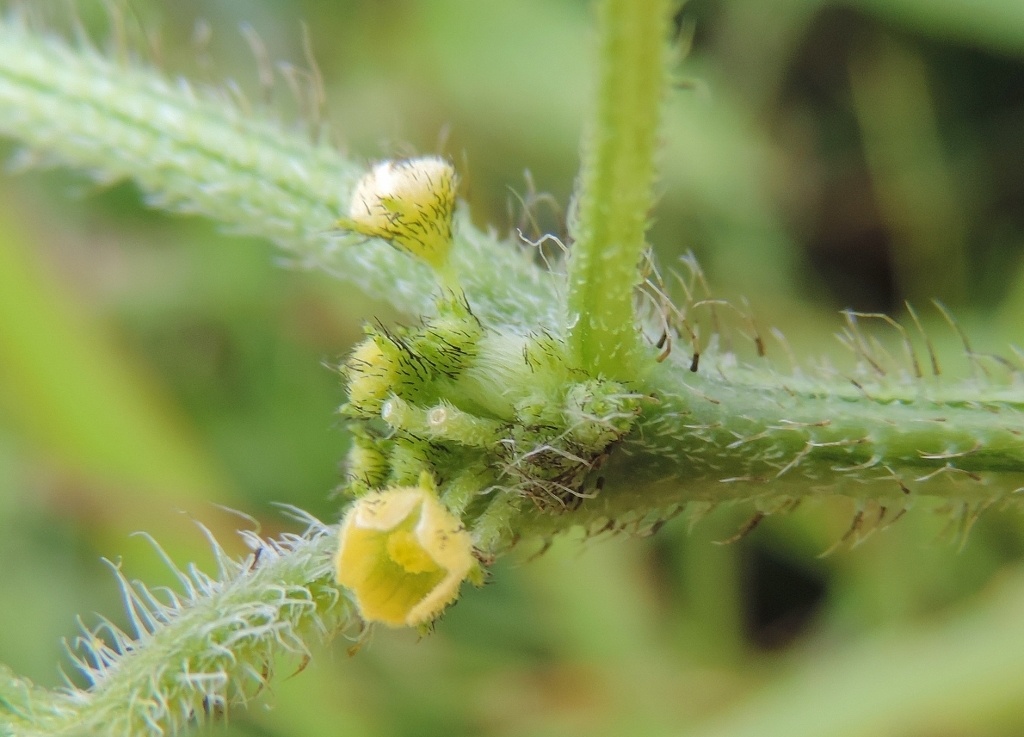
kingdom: Plantae
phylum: Tracheophyta
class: Magnoliopsida
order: Cucurbitales
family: Cucurbitaceae
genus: Cucumis
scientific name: Cucumis maderaspatanus
